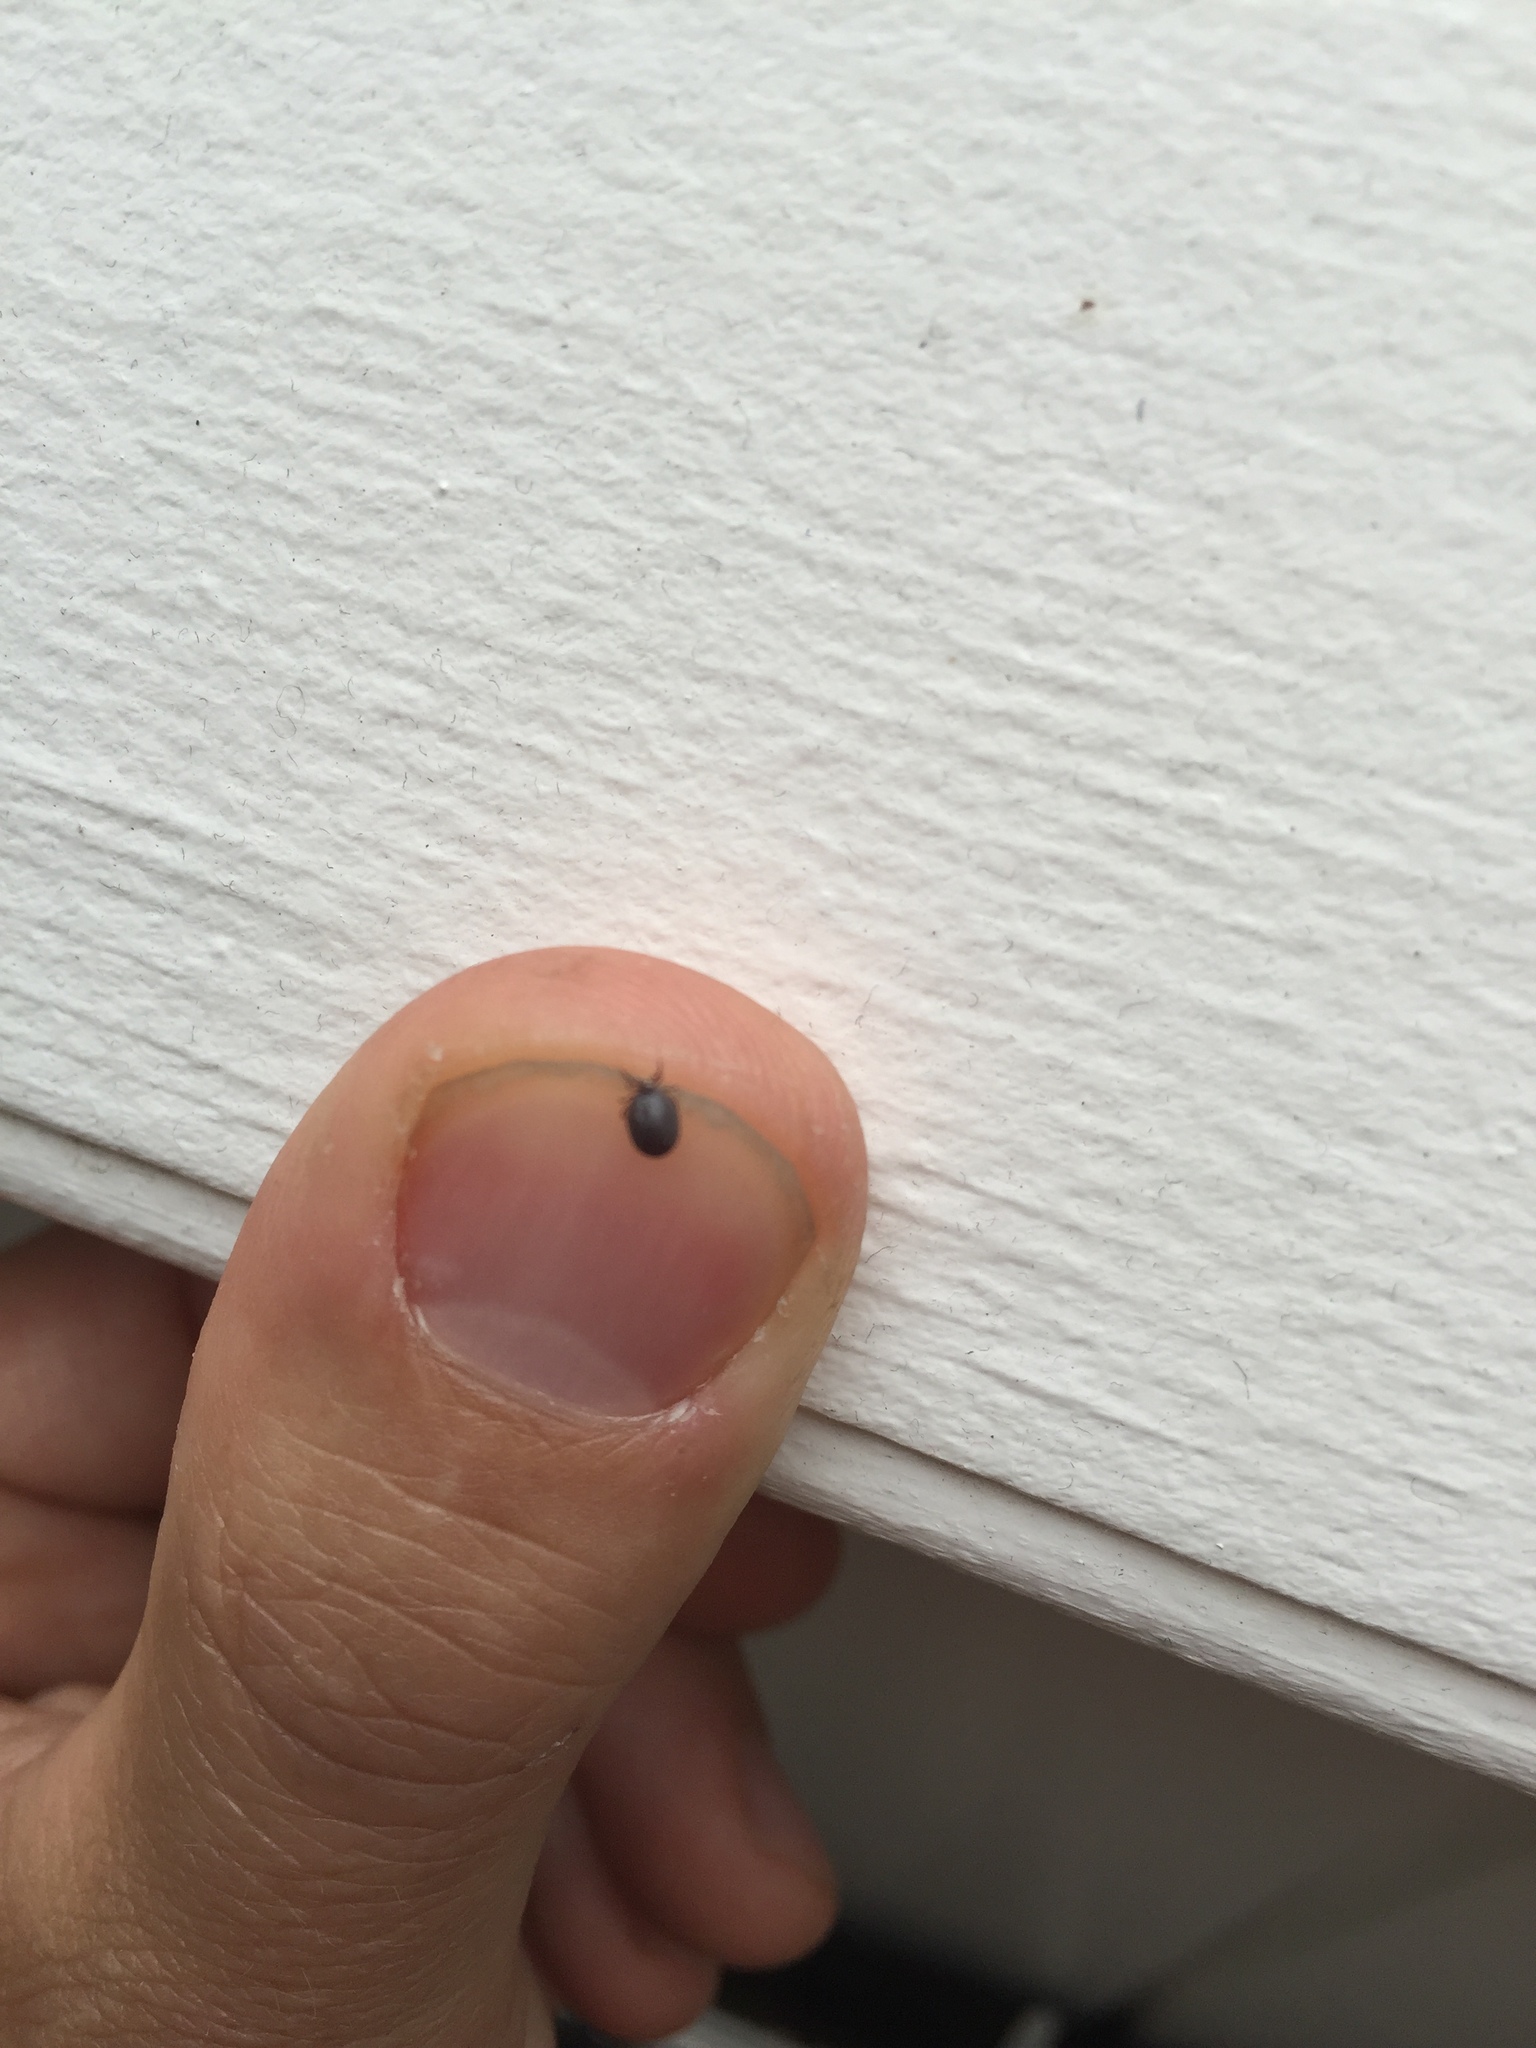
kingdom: Animalia
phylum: Arthropoda
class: Arachnida
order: Ixodida
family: Ixodidae
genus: Ixodes
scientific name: Ixodes ricinus
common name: Castor bean tick
